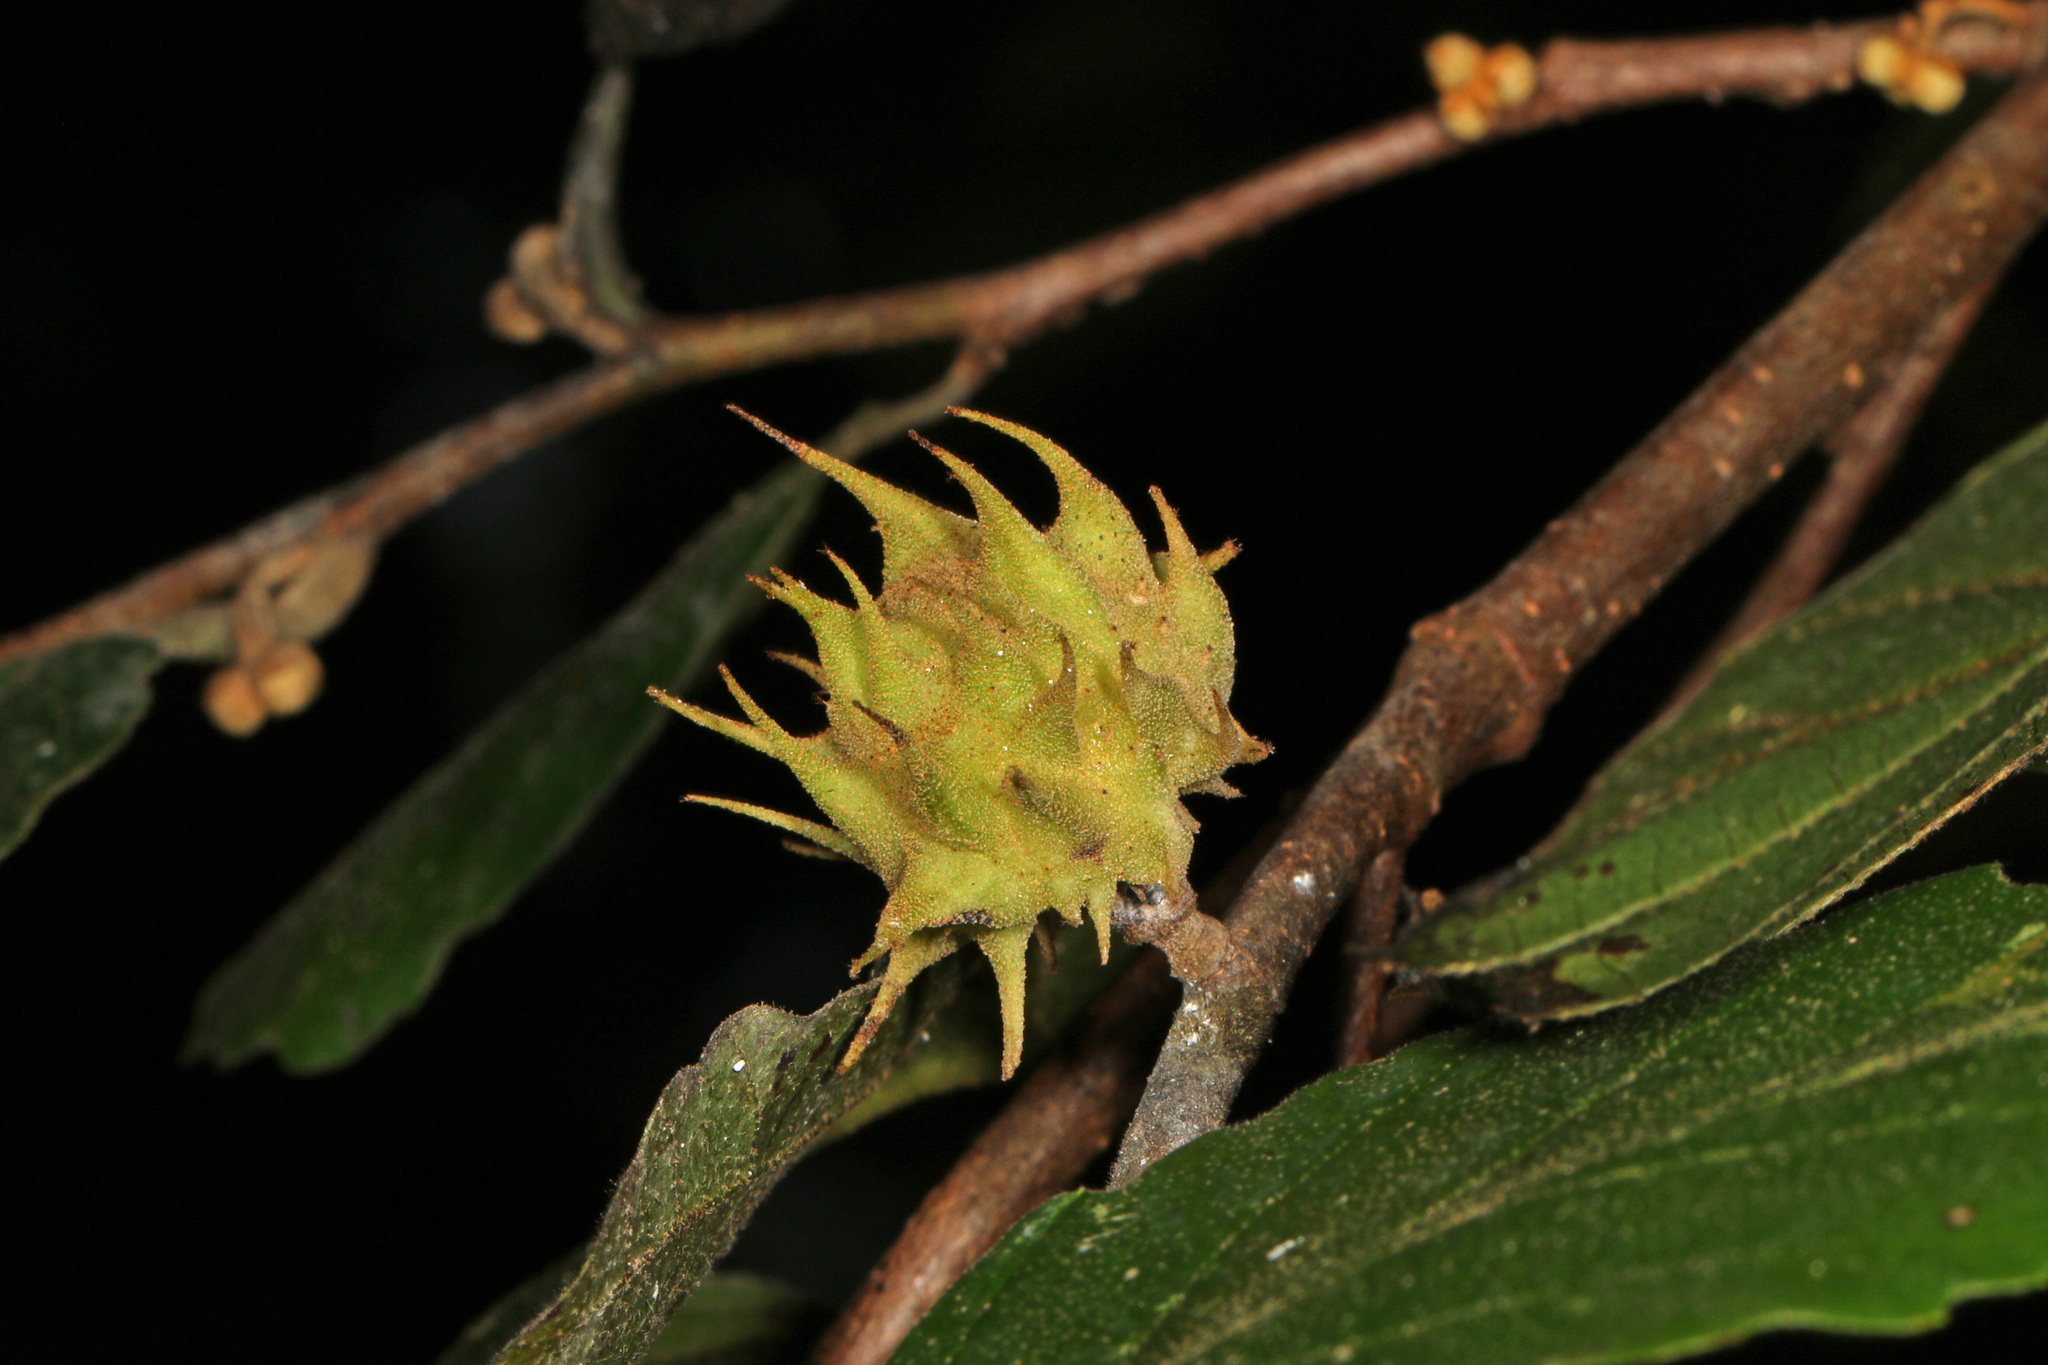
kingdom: Animalia
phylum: Arthropoda
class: Insecta
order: Hemiptera
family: Aphididae
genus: Hamamelistes
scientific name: Hamamelistes spinosus
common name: Witch hazel gall aphid
